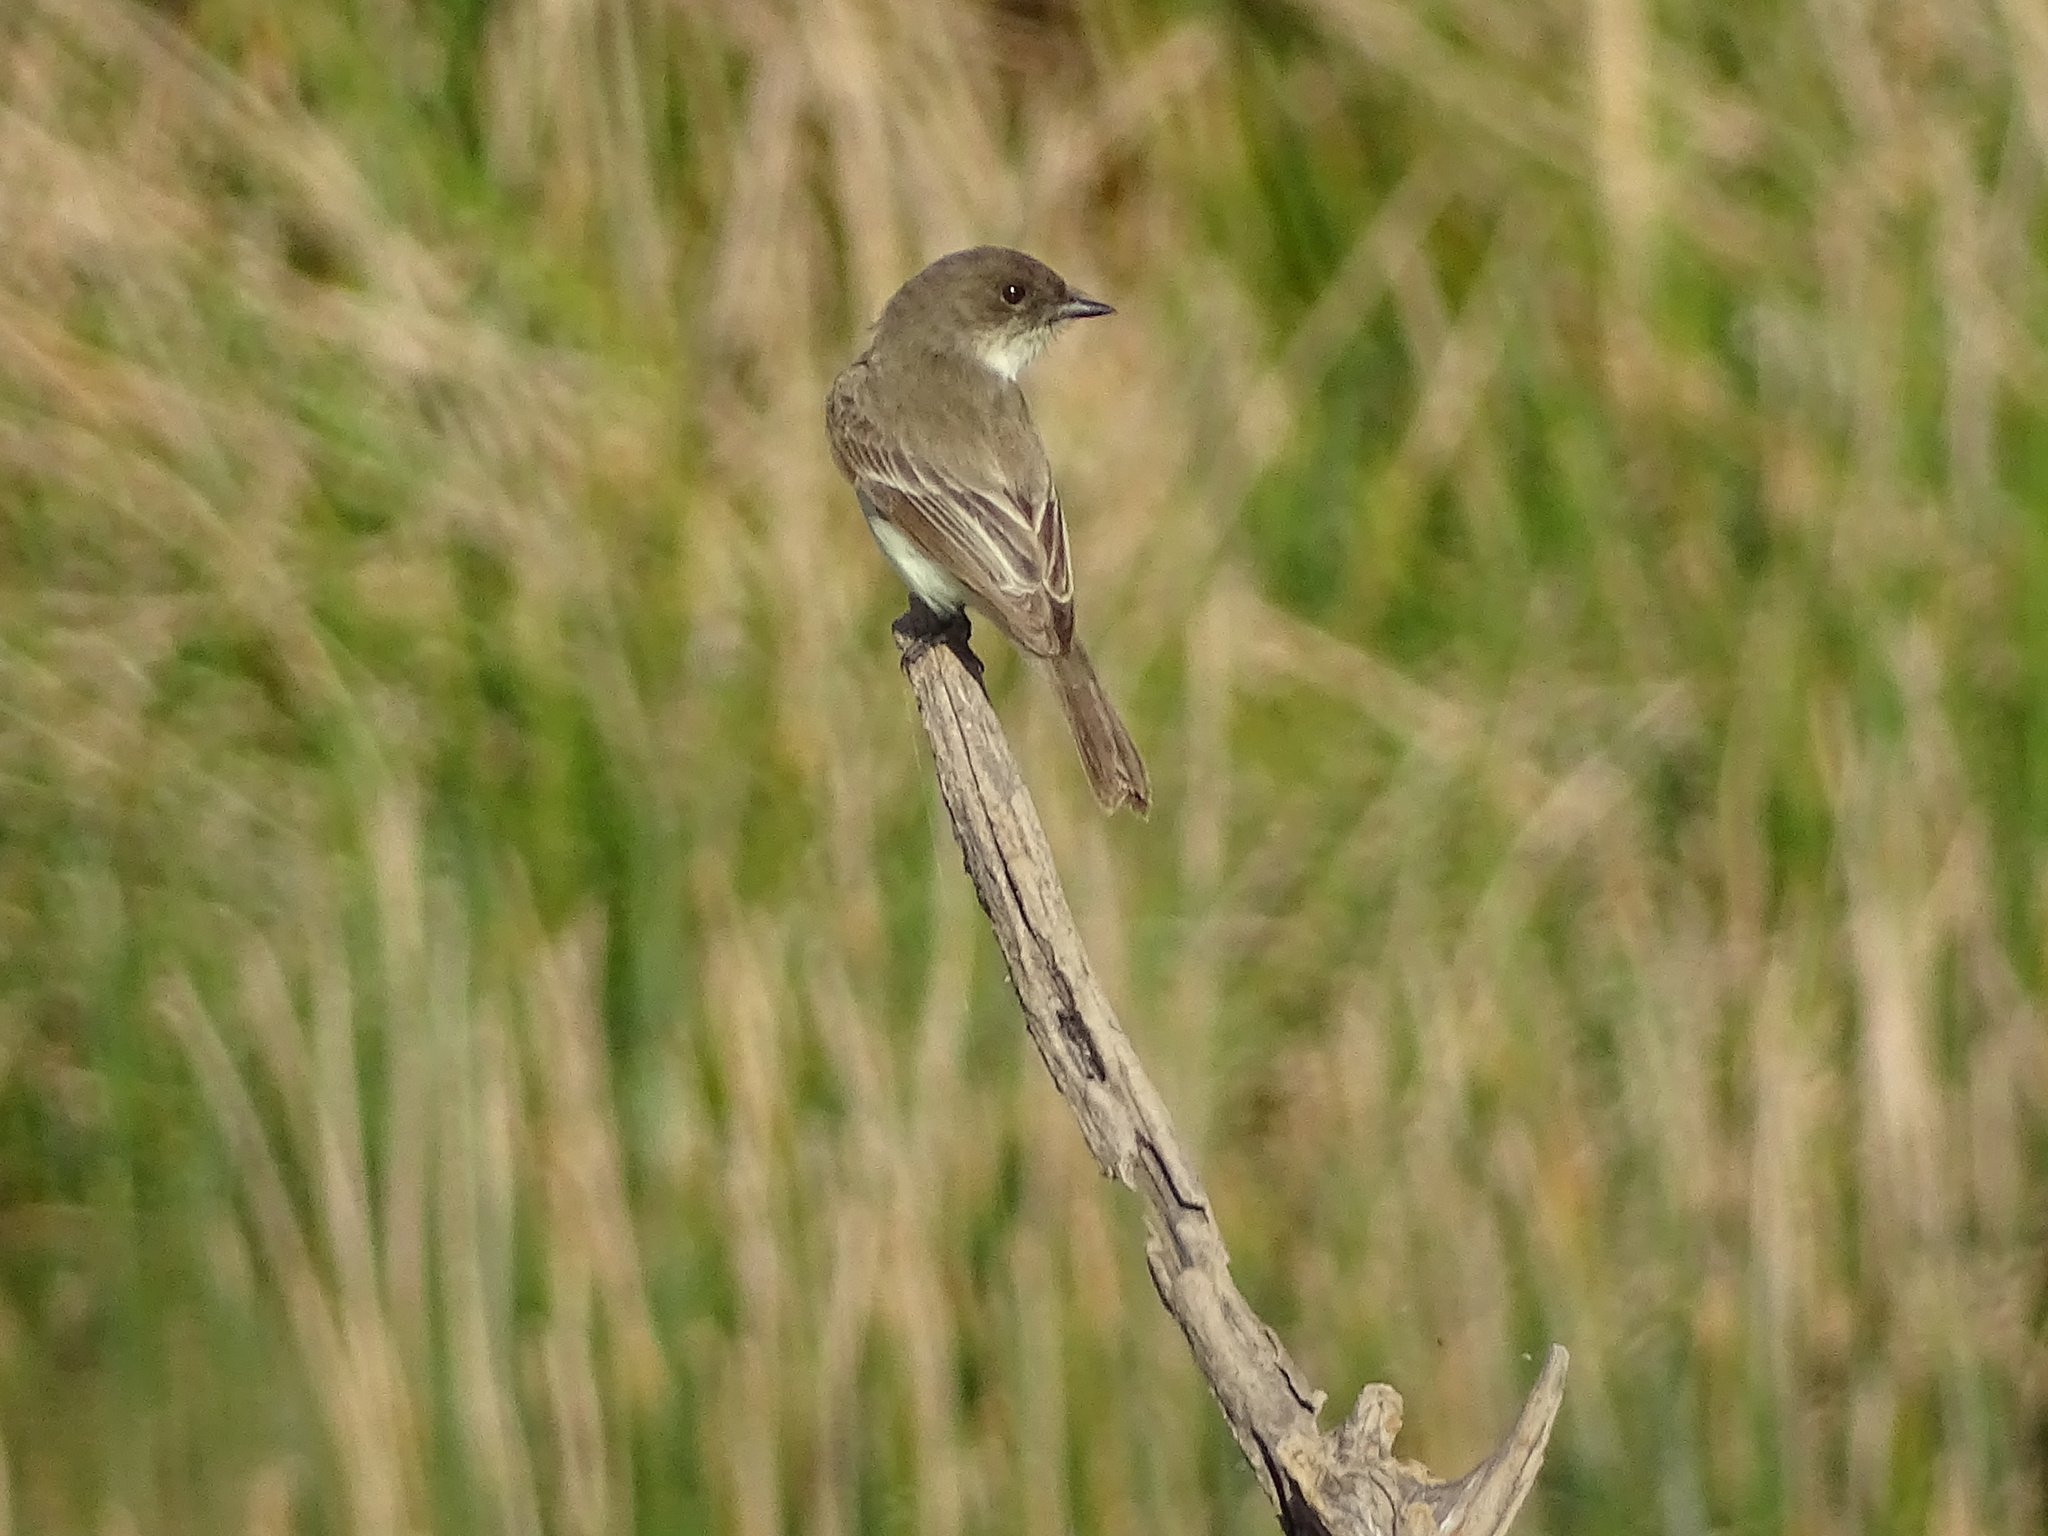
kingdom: Animalia
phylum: Chordata
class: Aves
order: Passeriformes
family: Tyrannidae
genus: Sayornis
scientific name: Sayornis phoebe
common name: Eastern phoebe
